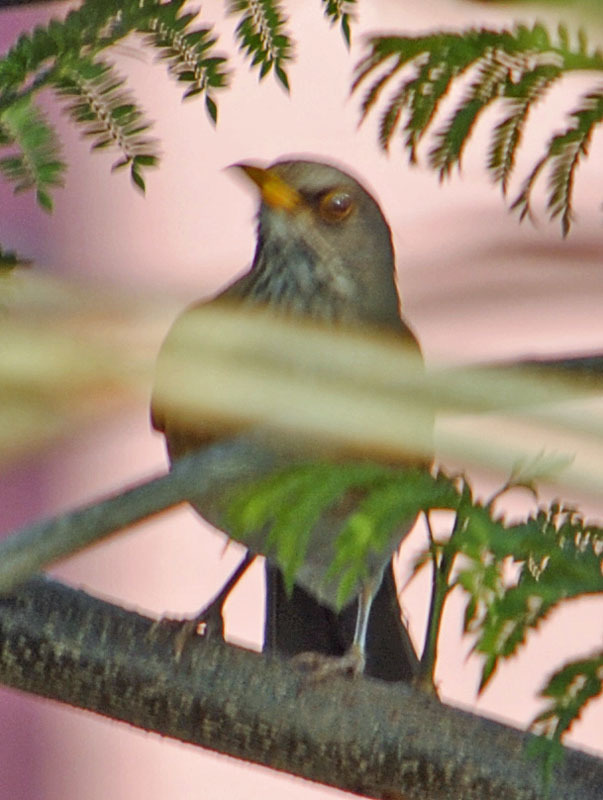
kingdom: Animalia
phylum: Chordata
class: Aves
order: Passeriformes
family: Turdidae
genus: Turdus
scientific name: Turdus rufopalliatus
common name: Rufous-backed robin
